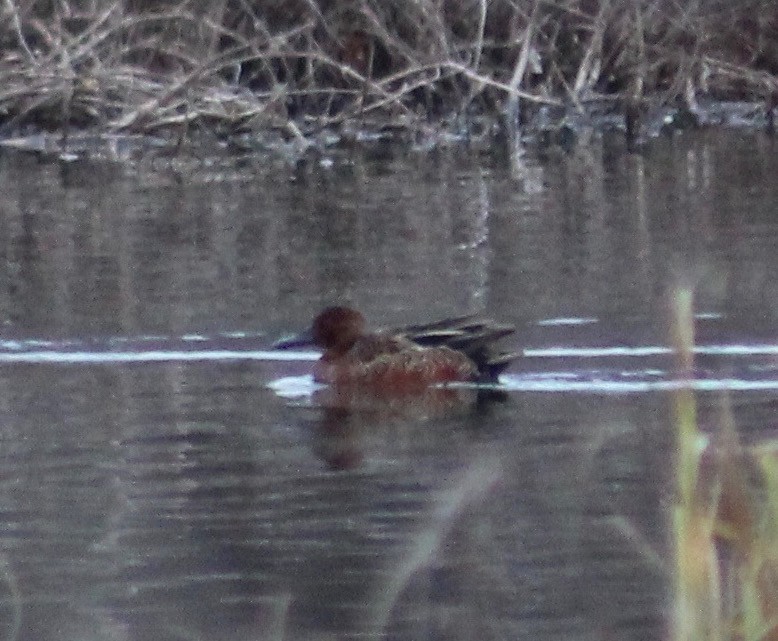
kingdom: Animalia
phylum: Chordata
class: Aves
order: Anseriformes
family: Anatidae
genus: Spatula
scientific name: Spatula cyanoptera
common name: Cinnamon teal
